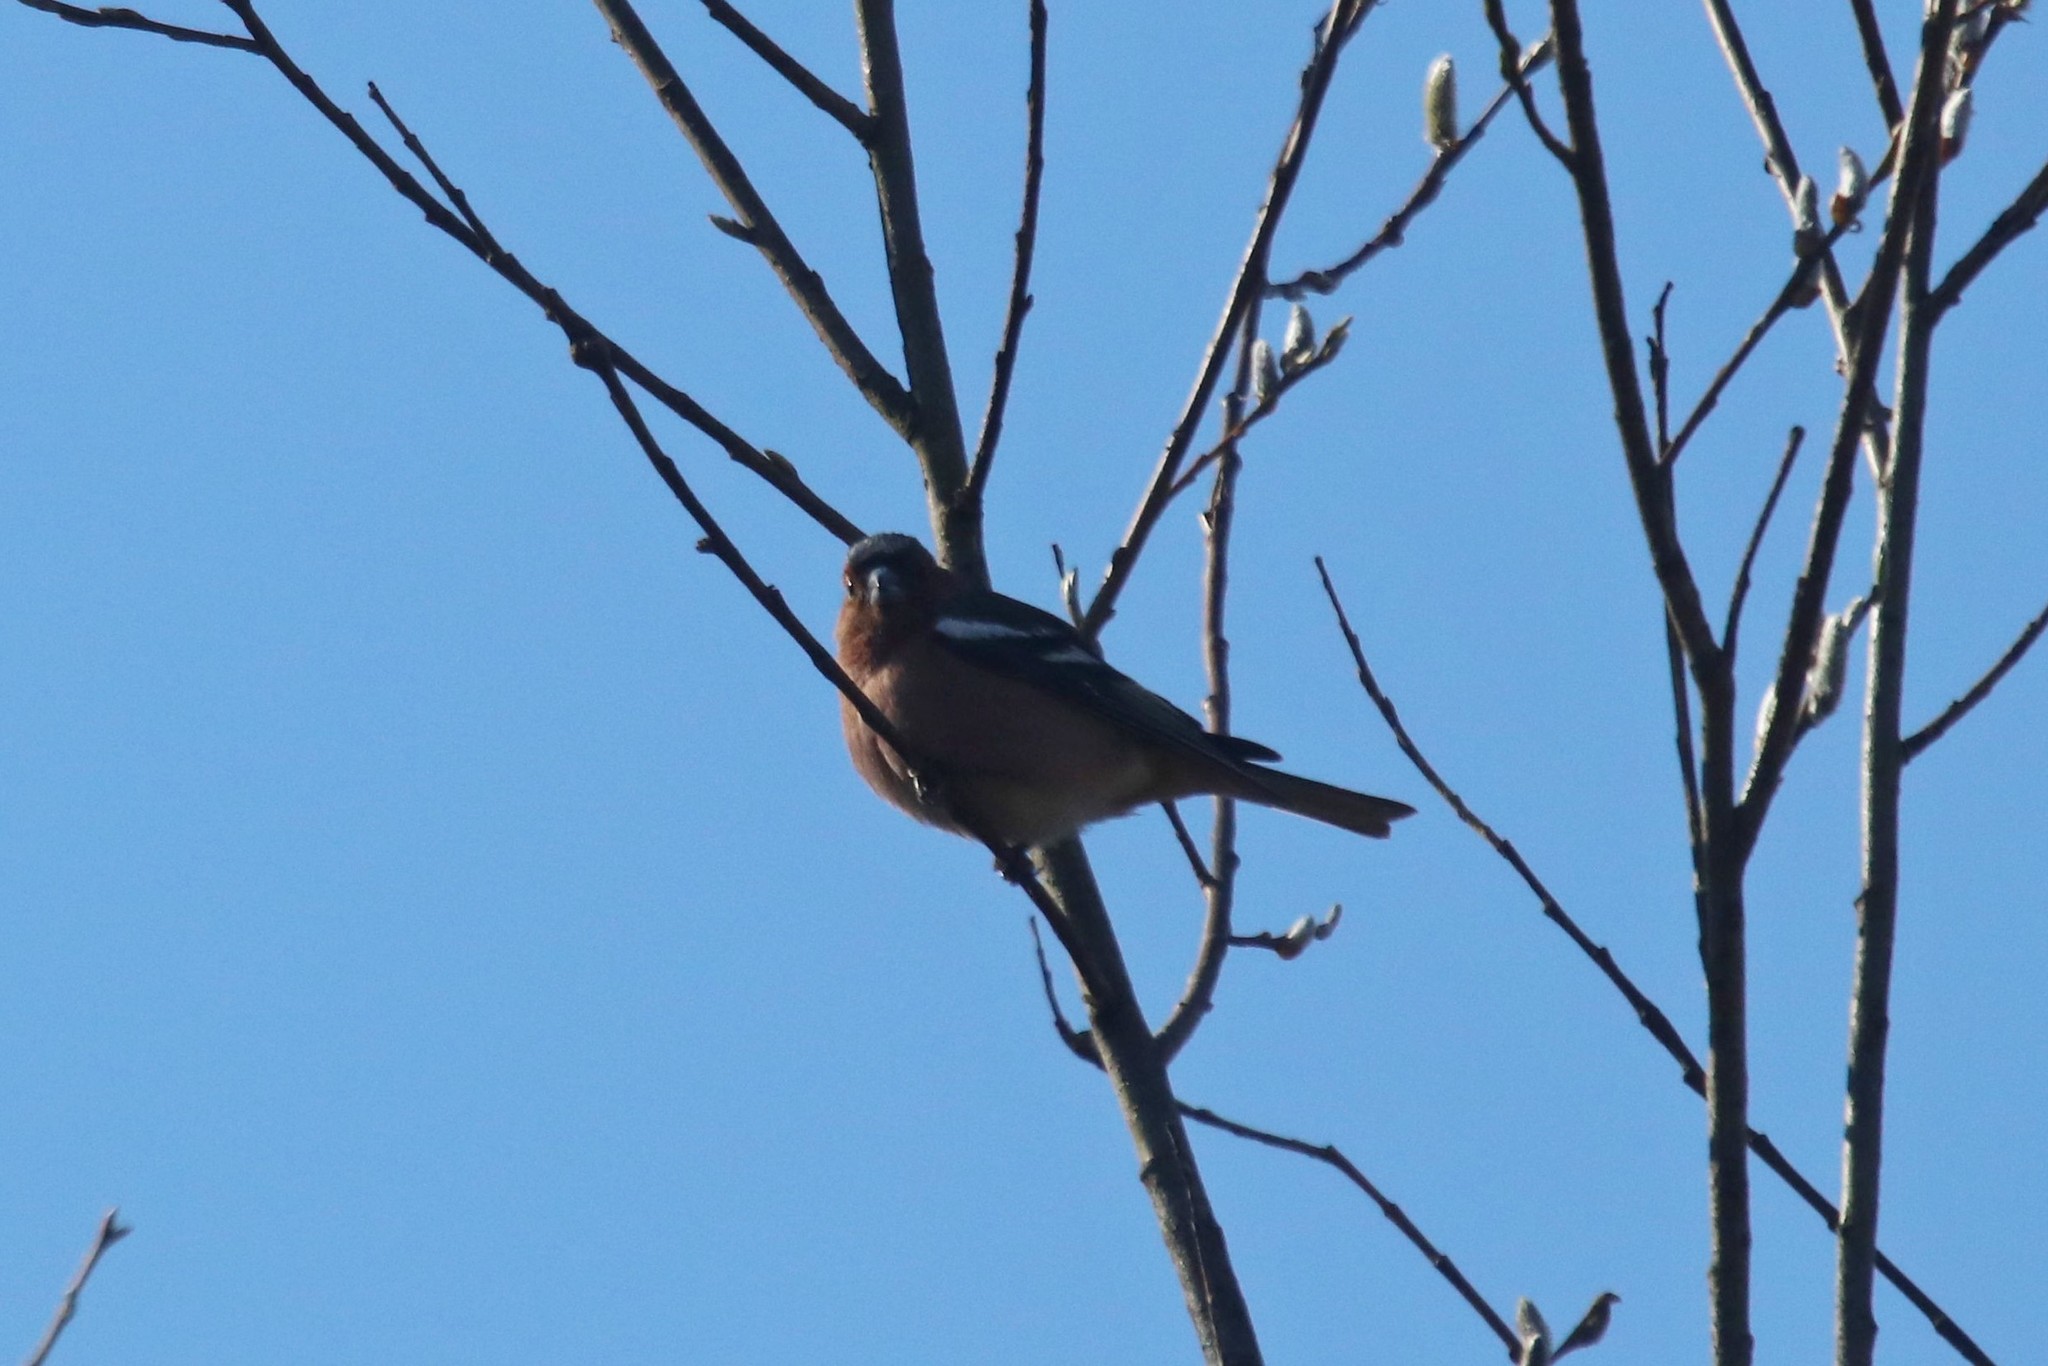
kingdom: Animalia
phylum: Chordata
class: Aves
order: Passeriformes
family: Fringillidae
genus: Fringilla
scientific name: Fringilla coelebs
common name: Common chaffinch
